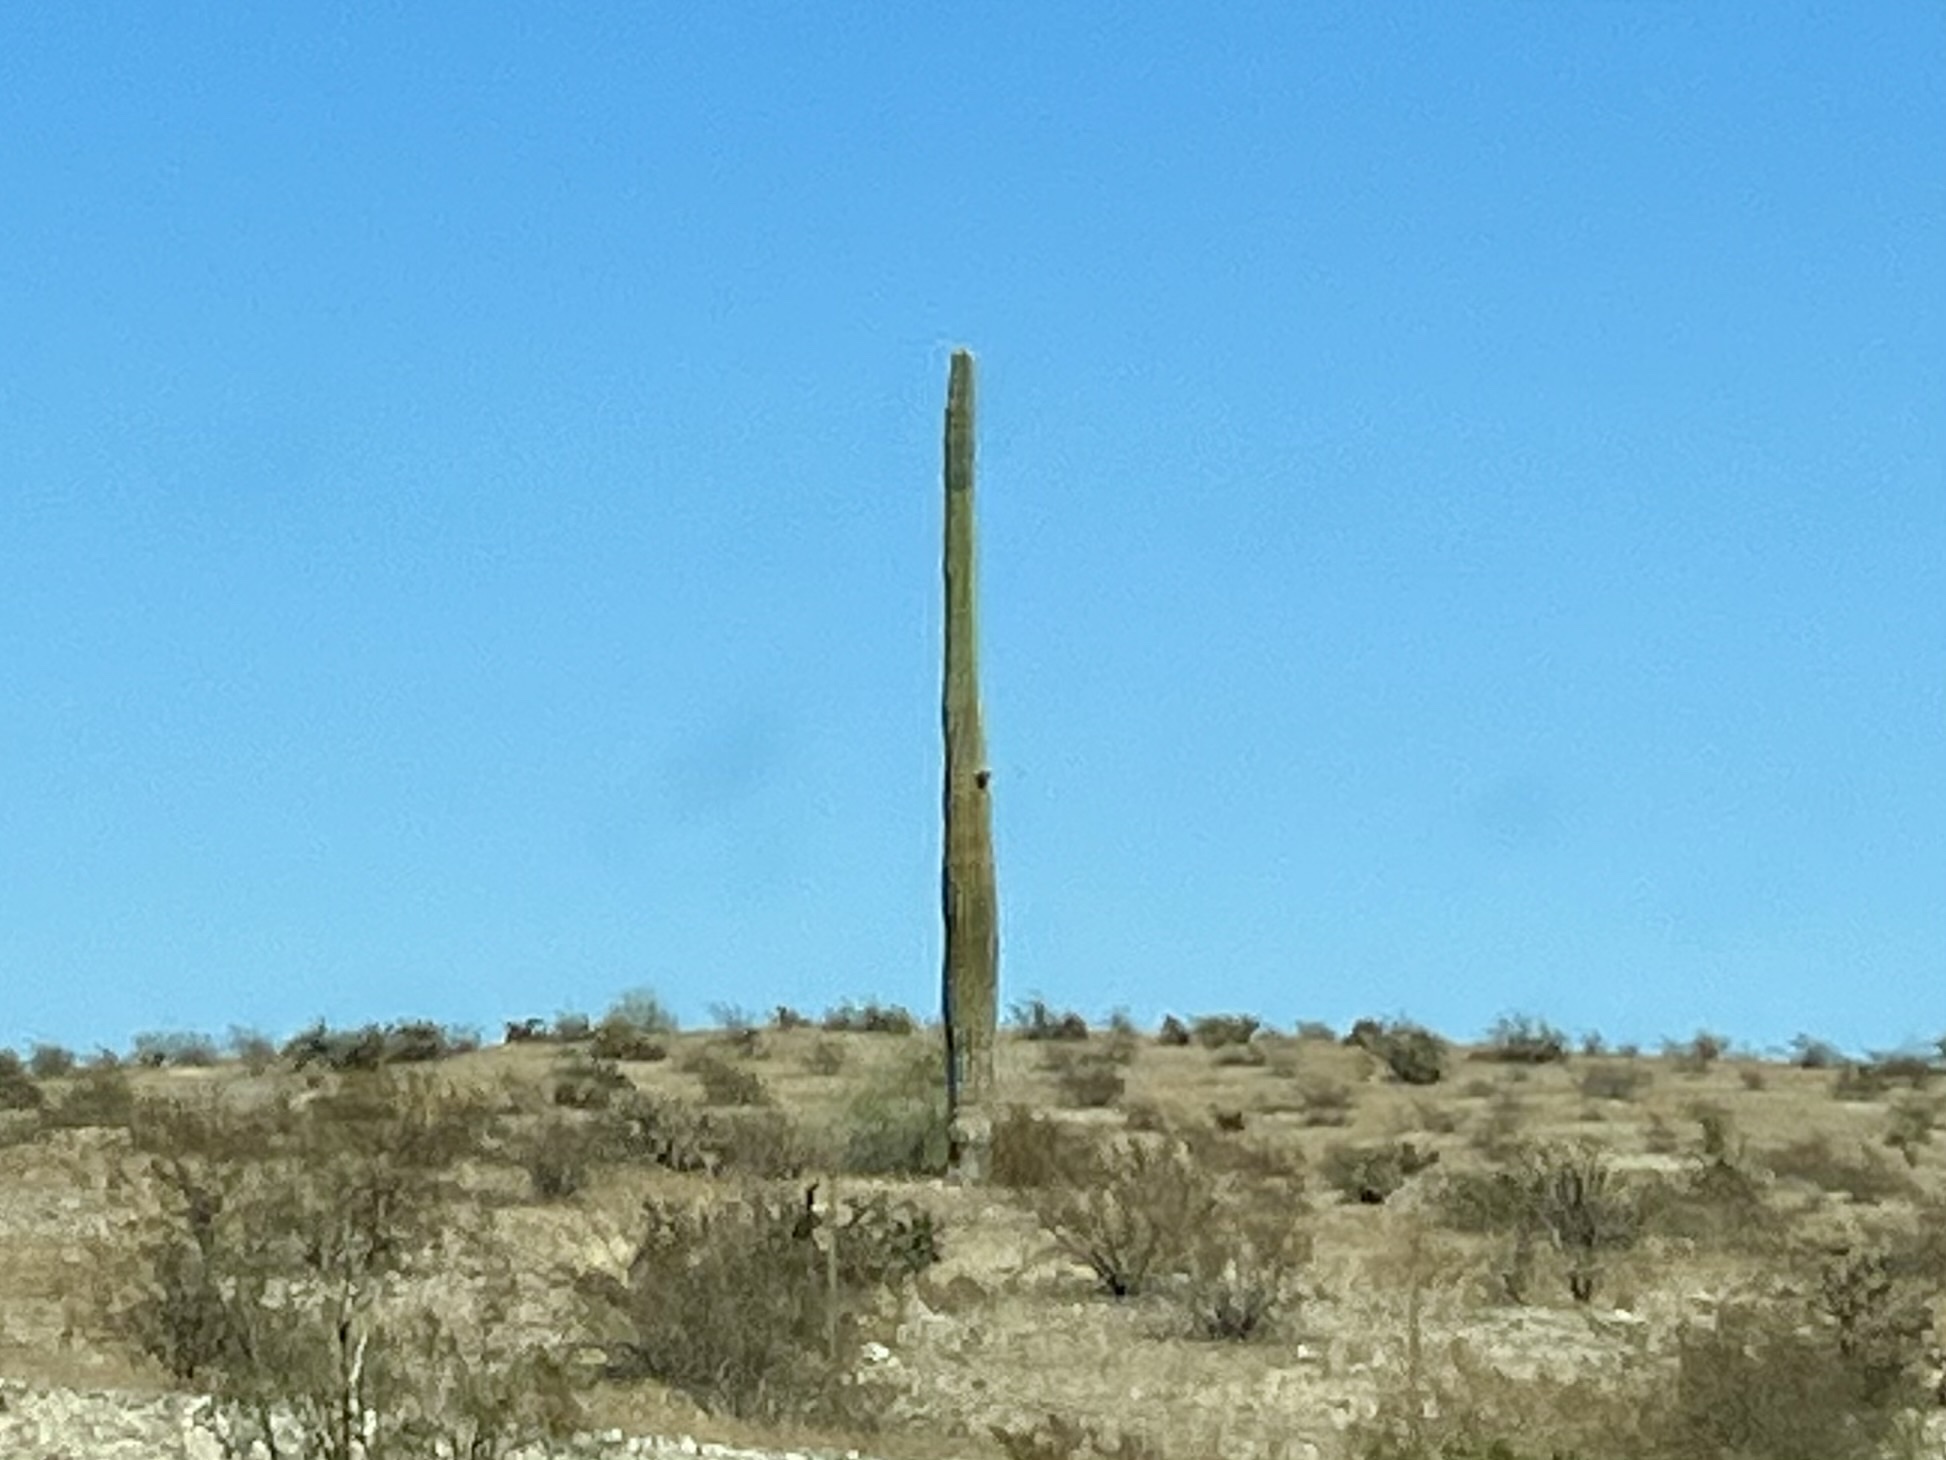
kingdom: Plantae
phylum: Tracheophyta
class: Magnoliopsida
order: Caryophyllales
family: Cactaceae
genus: Carnegiea
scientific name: Carnegiea gigantea
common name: Saguaro
